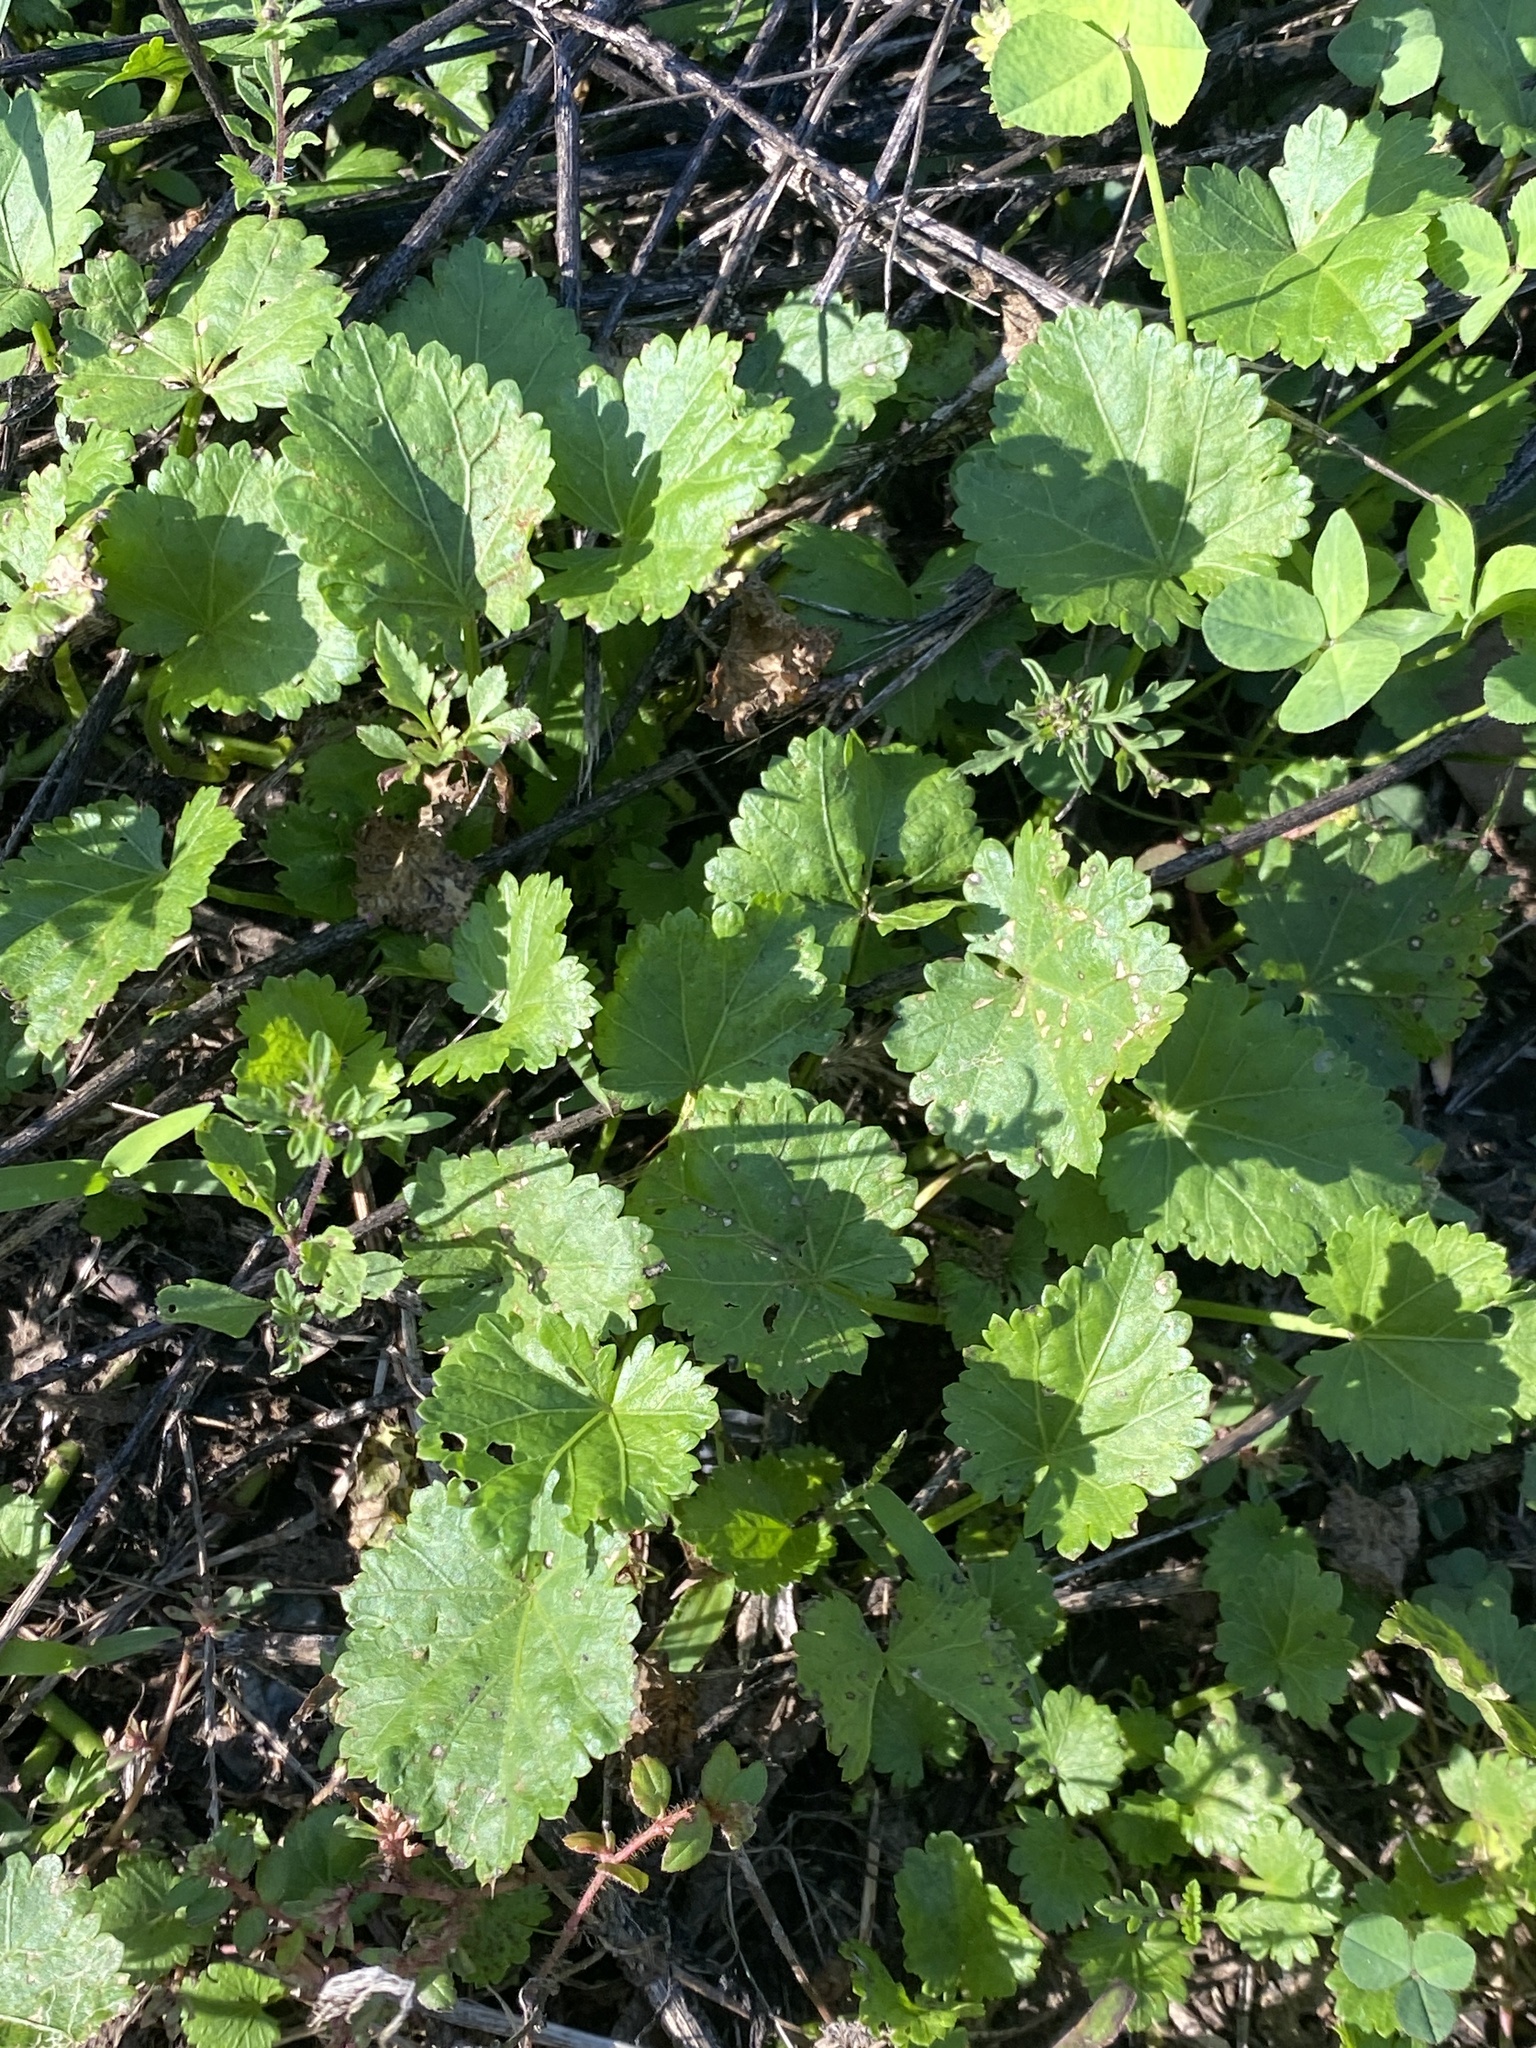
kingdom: Plantae
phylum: Tracheophyta
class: Magnoliopsida
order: Malvales
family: Malvaceae
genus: Modiola
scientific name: Modiola caroliniana
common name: Carolina bristlemallow
